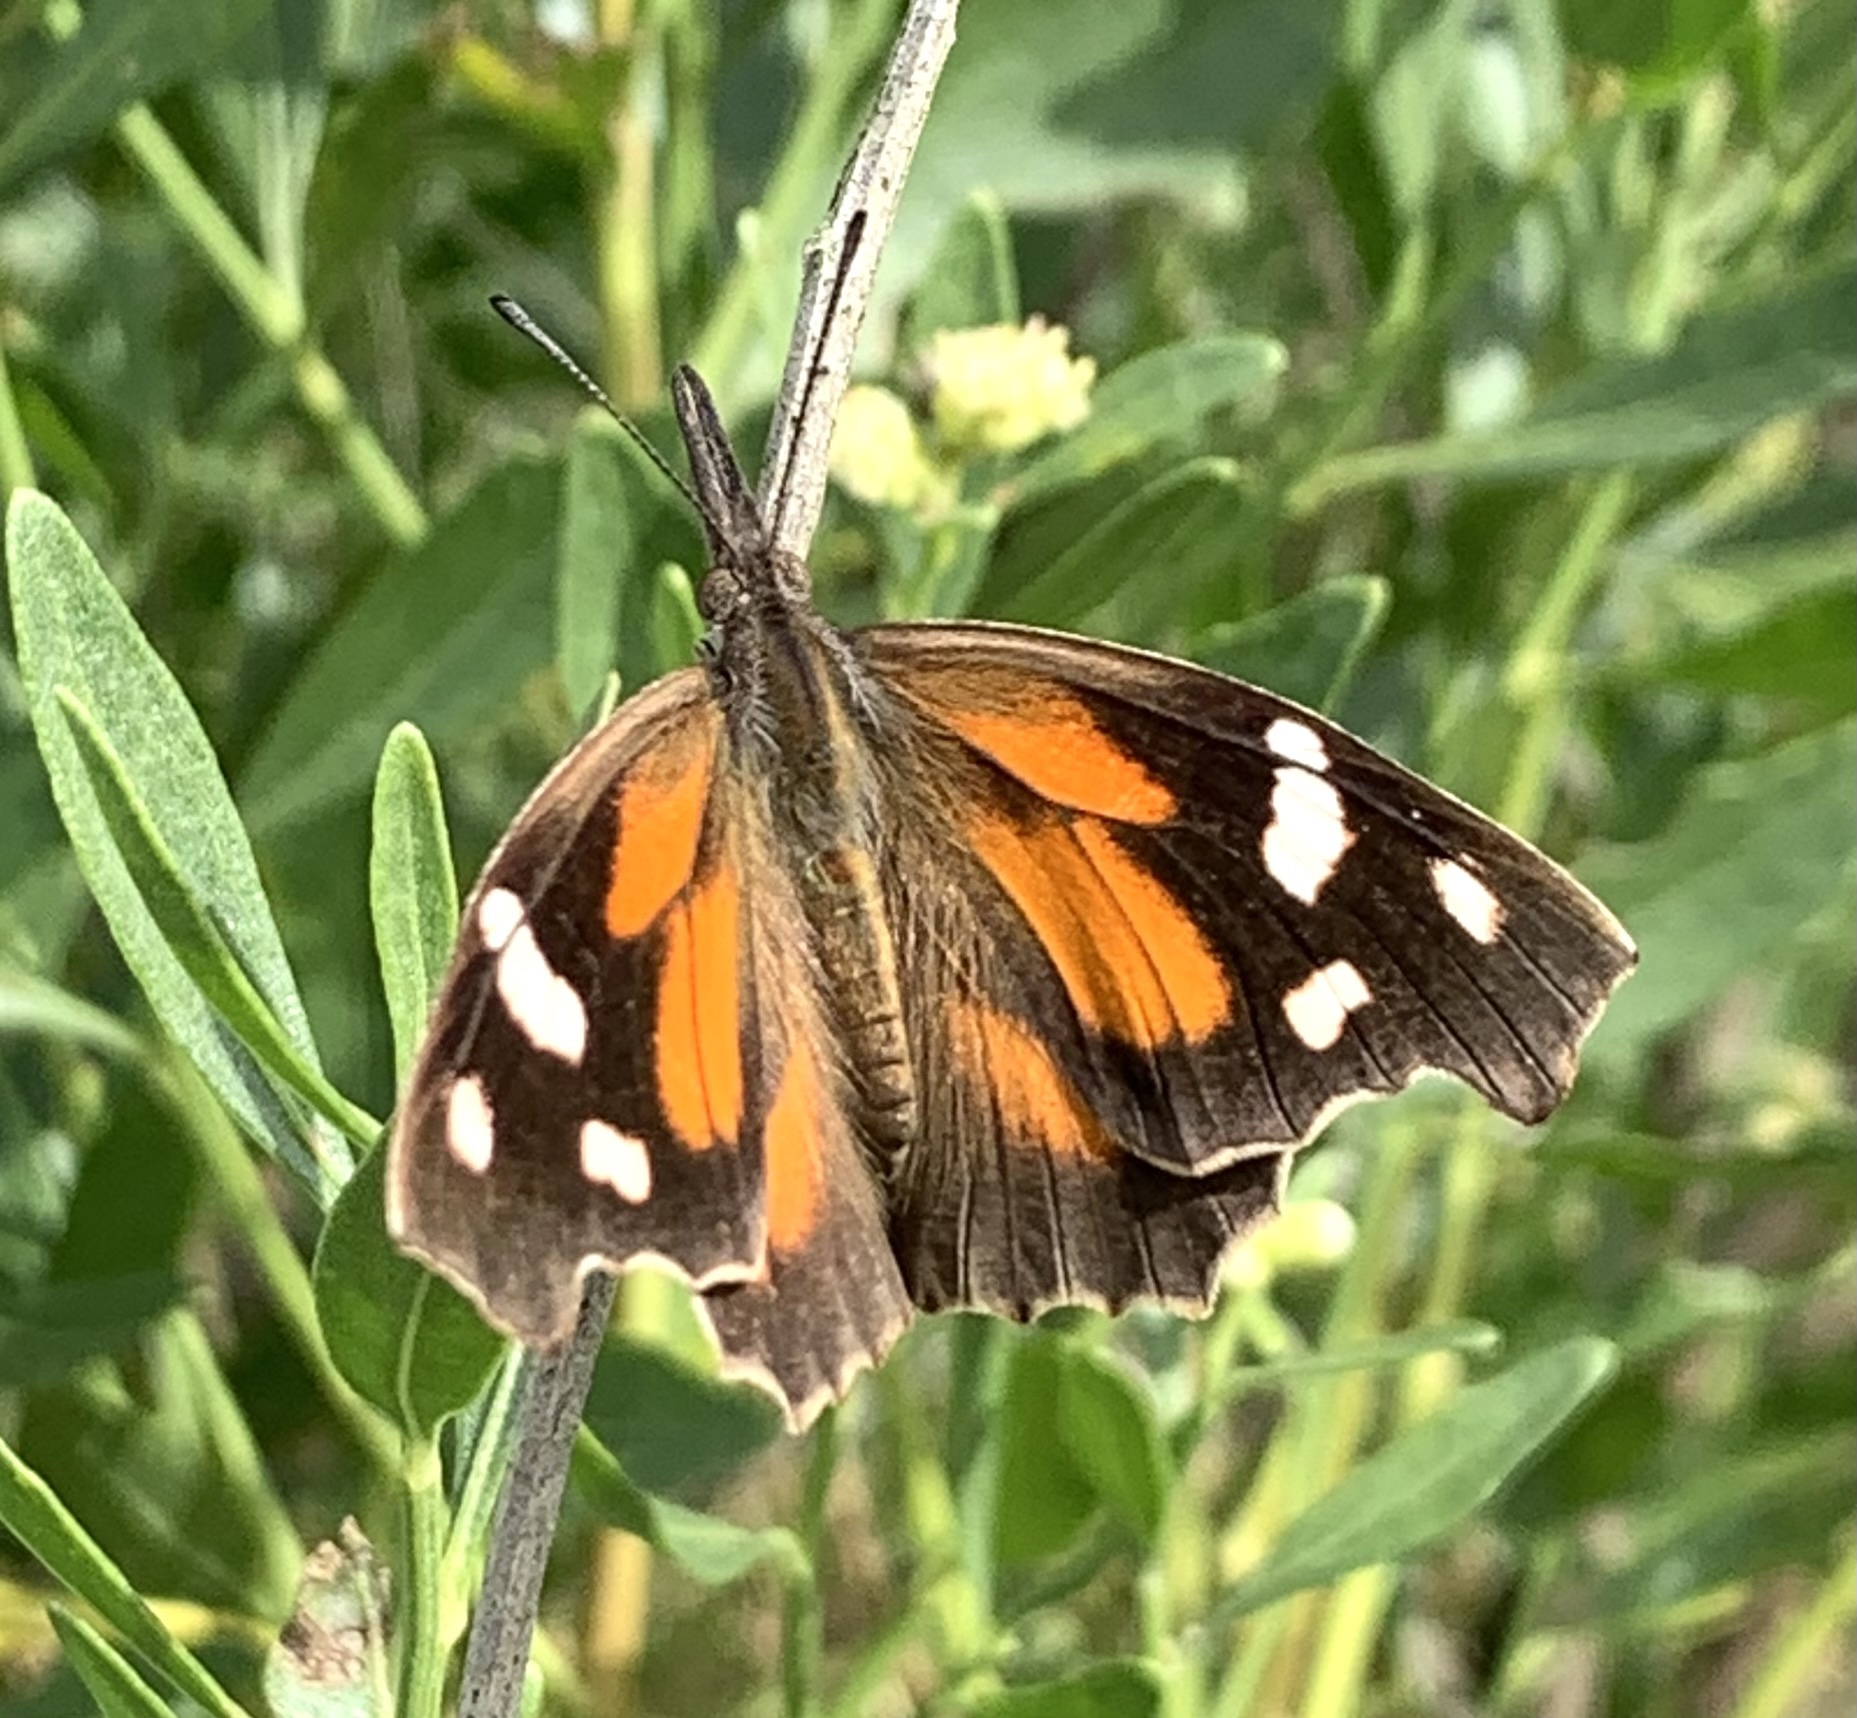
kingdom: Animalia
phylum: Arthropoda
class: Insecta
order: Lepidoptera
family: Nymphalidae
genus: Libytheana
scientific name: Libytheana carinenta
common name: American snout
